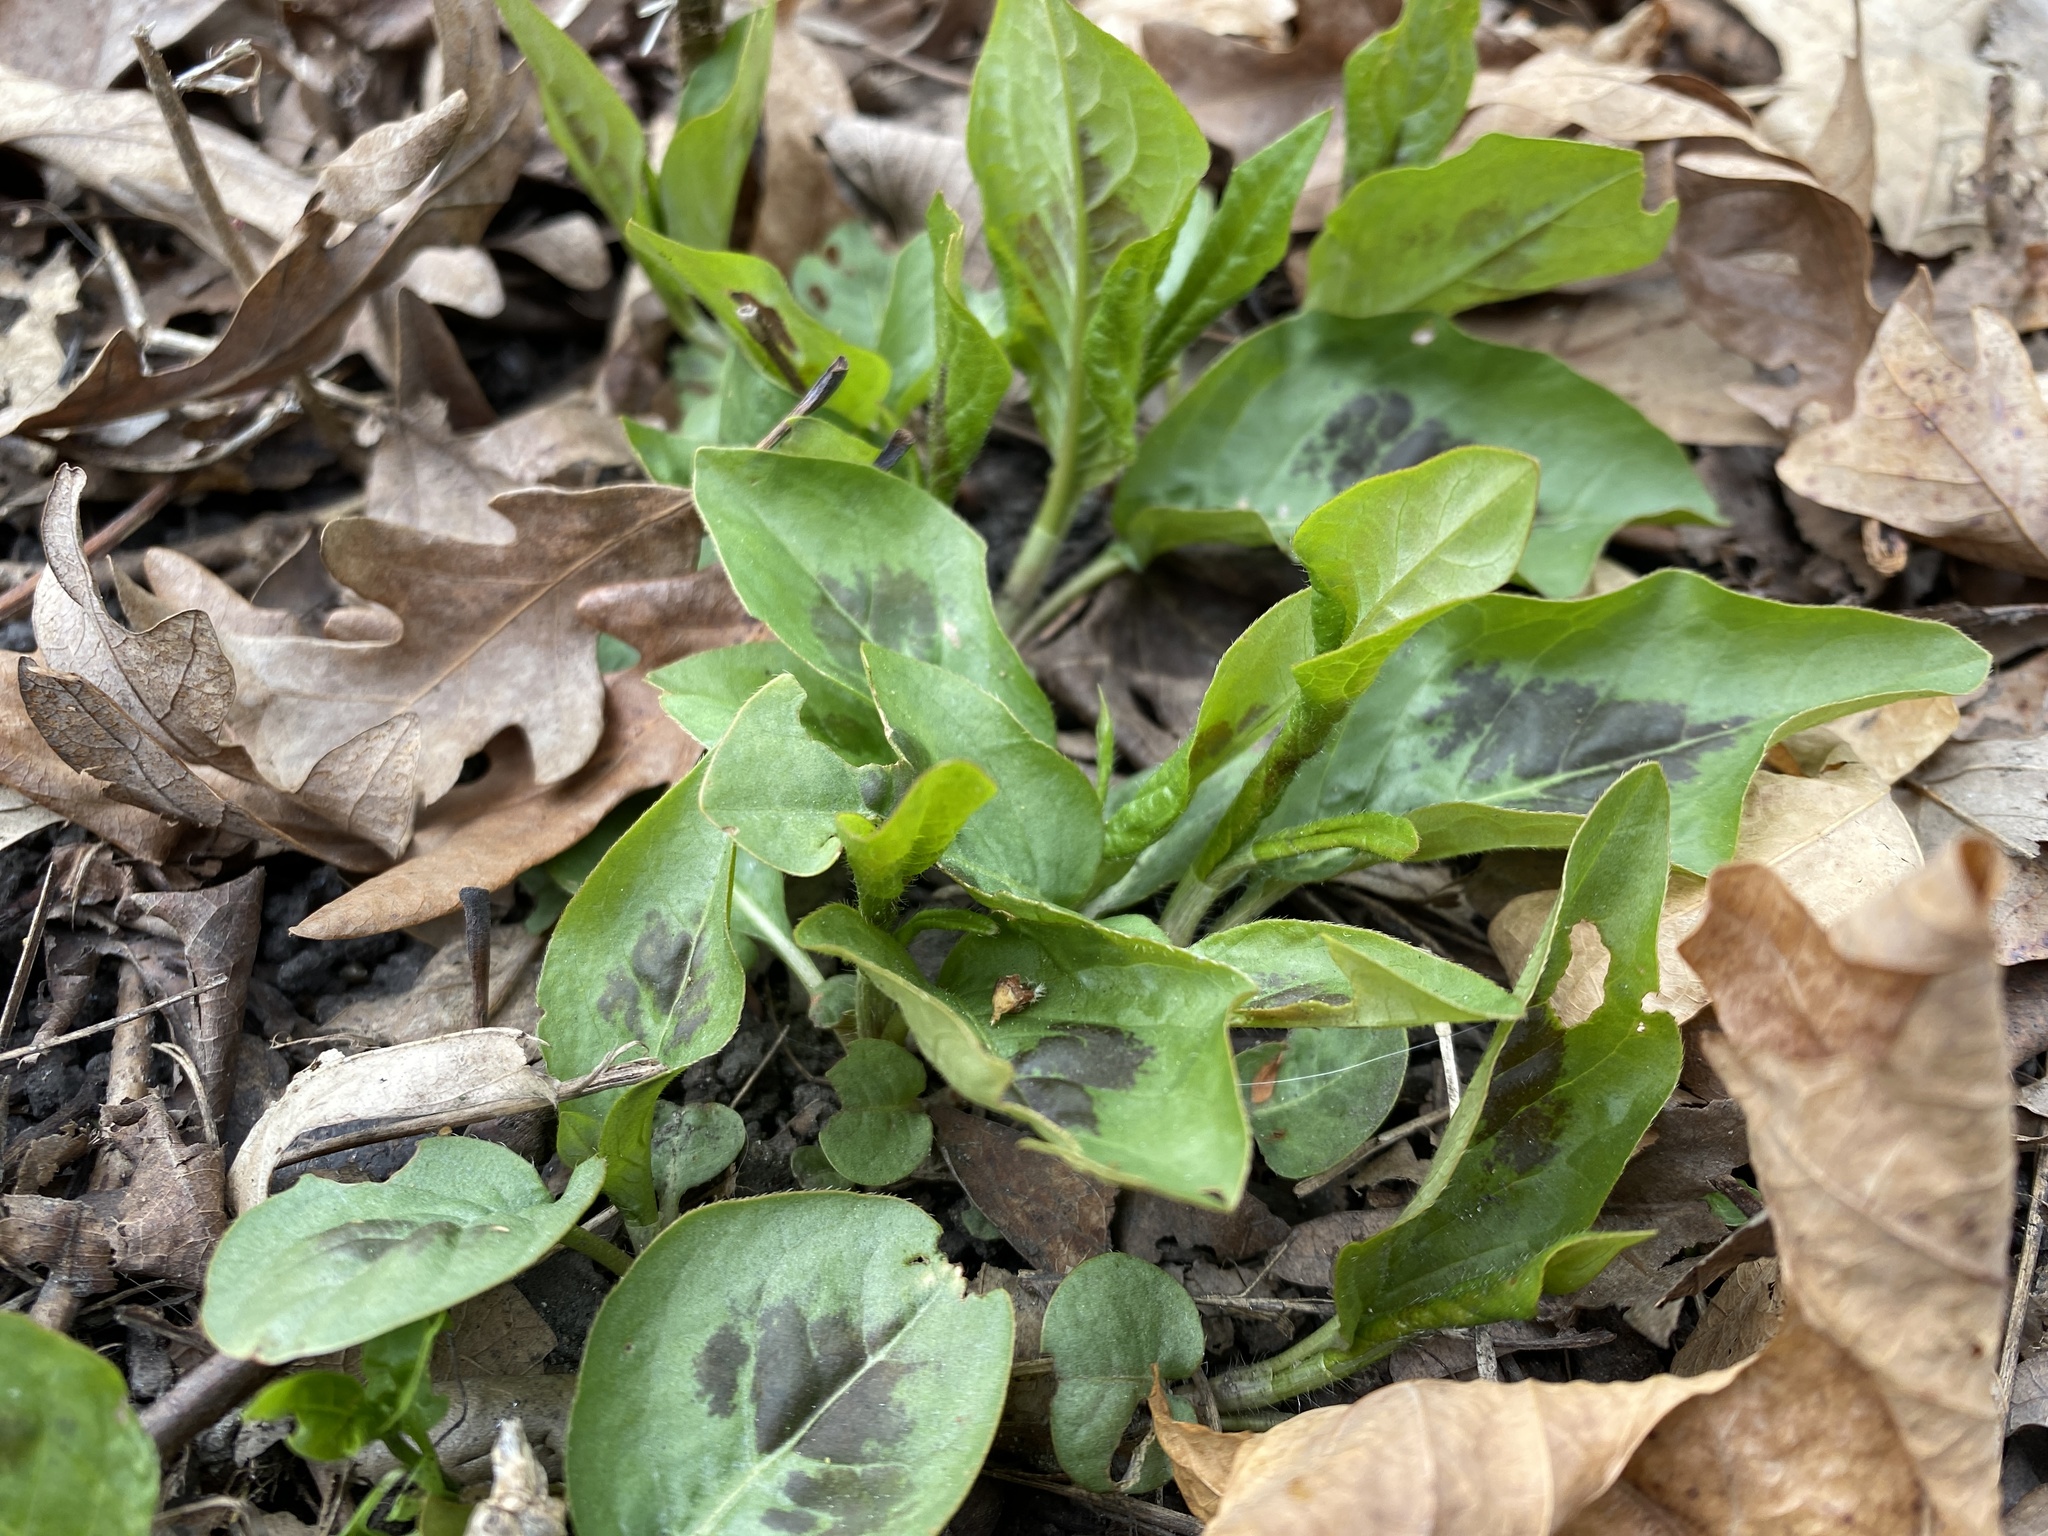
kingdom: Plantae
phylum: Tracheophyta
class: Magnoliopsida
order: Caryophyllales
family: Polygonaceae
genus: Persicaria
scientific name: Persicaria virginiana
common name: Jumpseed
